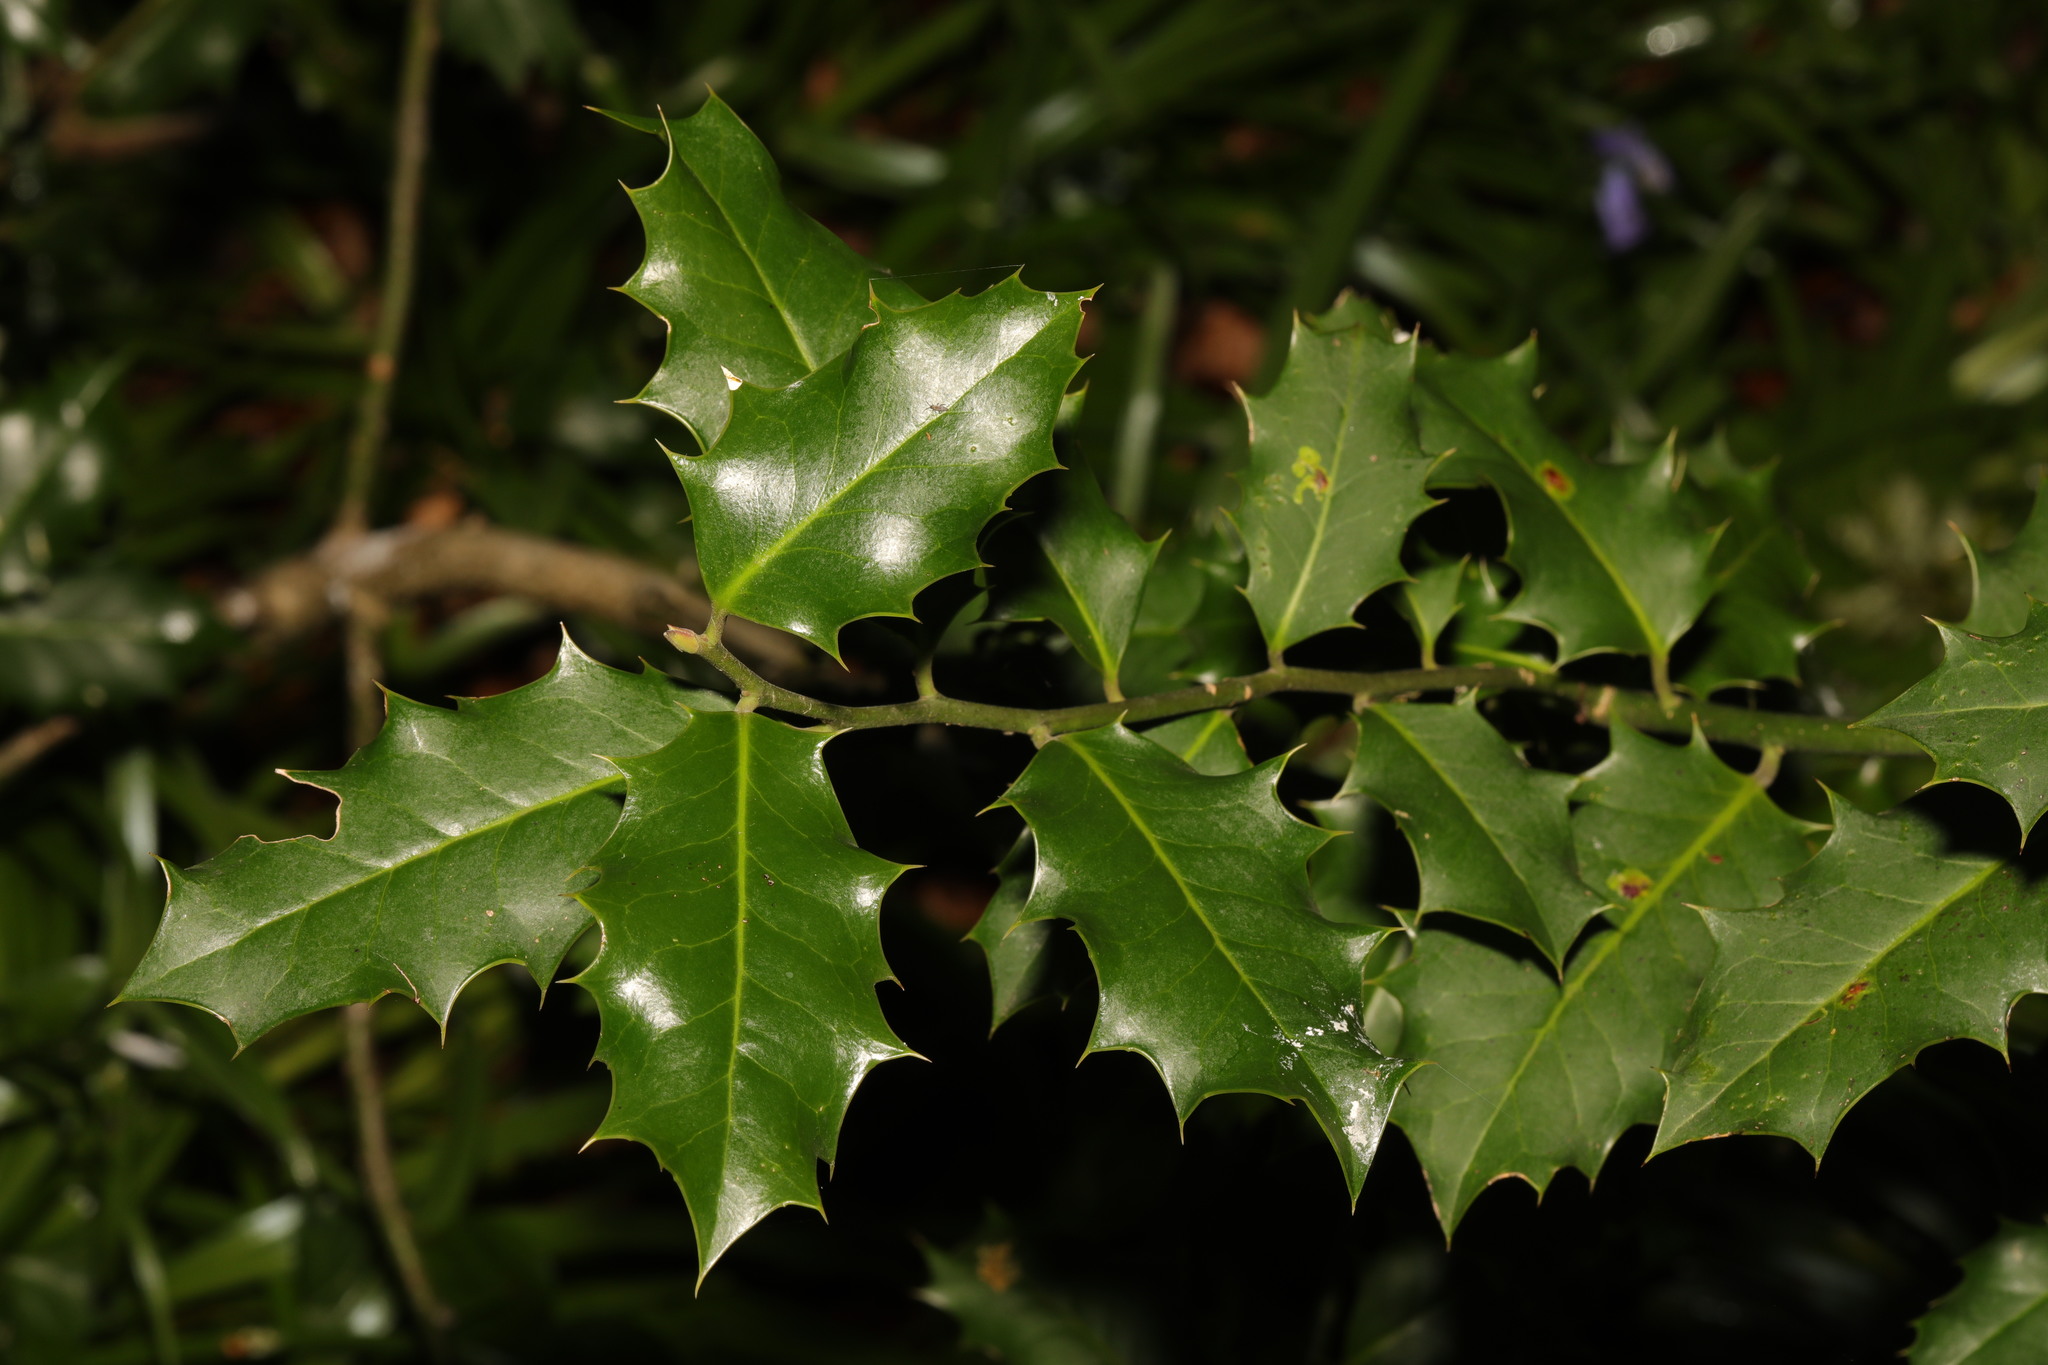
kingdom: Plantae
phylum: Tracheophyta
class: Magnoliopsida
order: Aquifoliales
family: Aquifoliaceae
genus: Ilex
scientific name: Ilex aquifolium
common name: English holly
